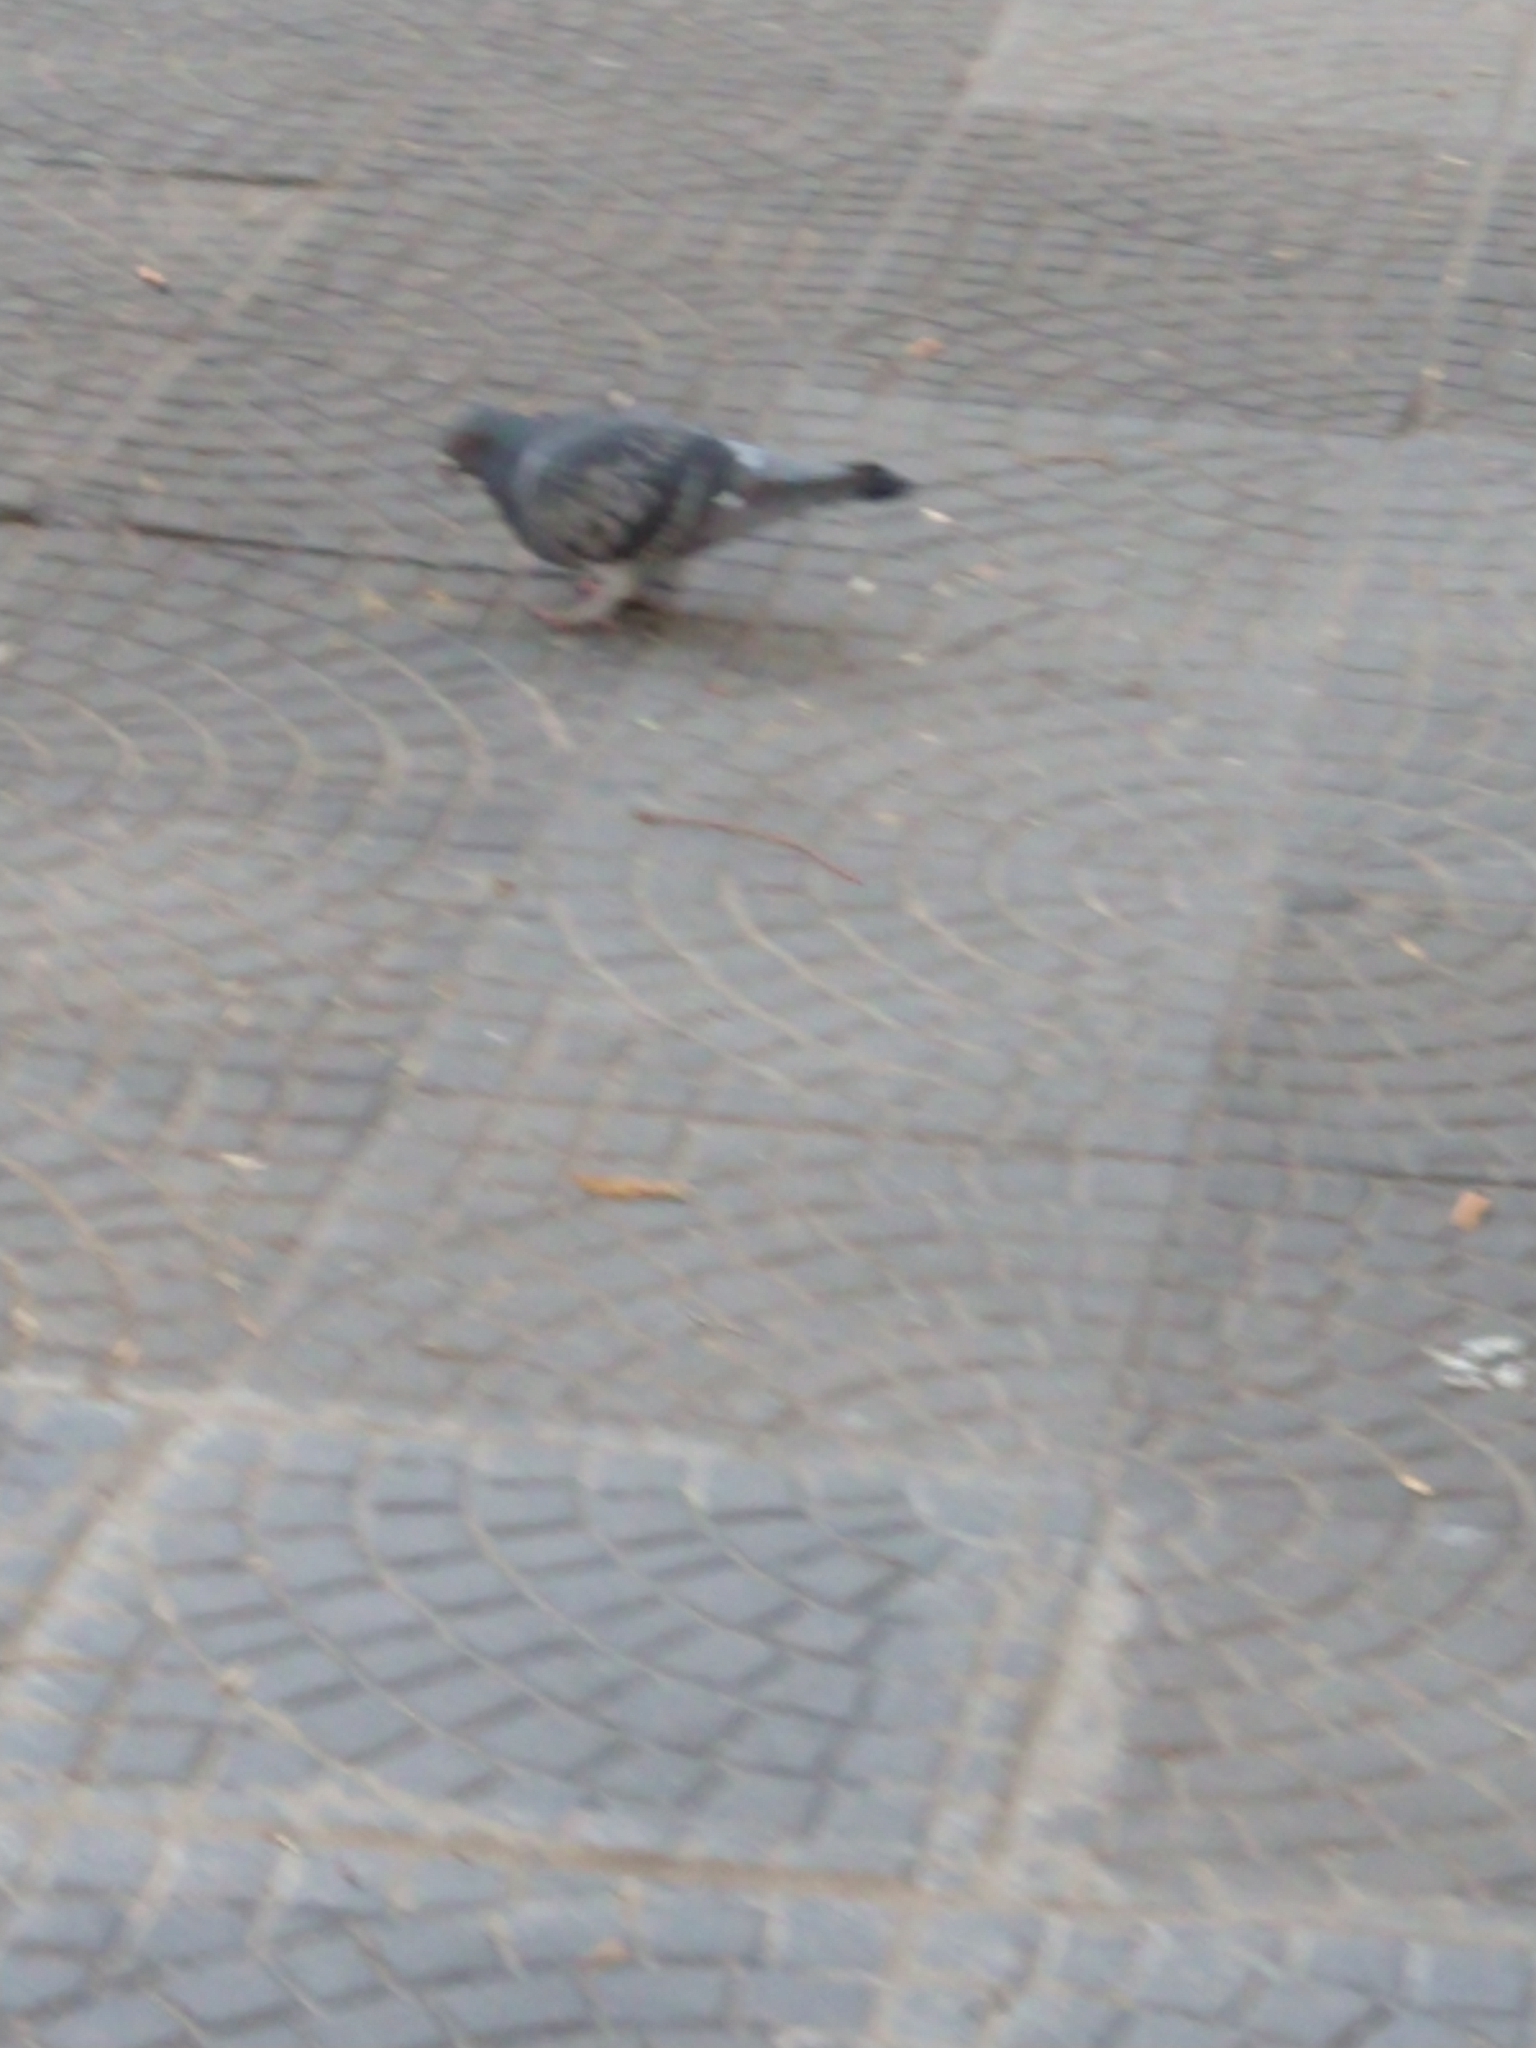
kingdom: Animalia
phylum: Chordata
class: Aves
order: Columbiformes
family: Columbidae
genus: Columba
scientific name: Columba livia
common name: Rock pigeon
